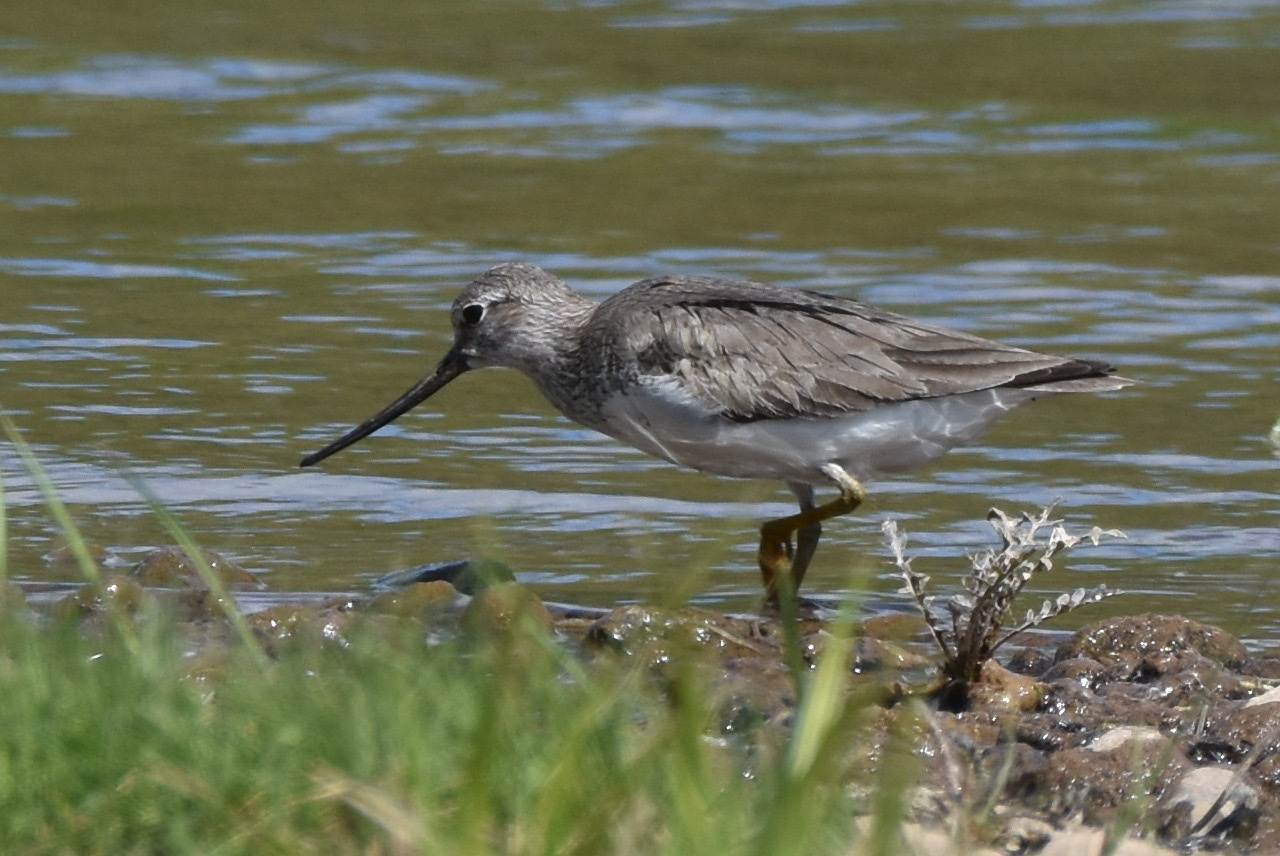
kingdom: Animalia
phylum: Chordata
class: Aves
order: Charadriiformes
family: Scolopacidae
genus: Xenus
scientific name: Xenus cinereus
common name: Terek sandpiper
